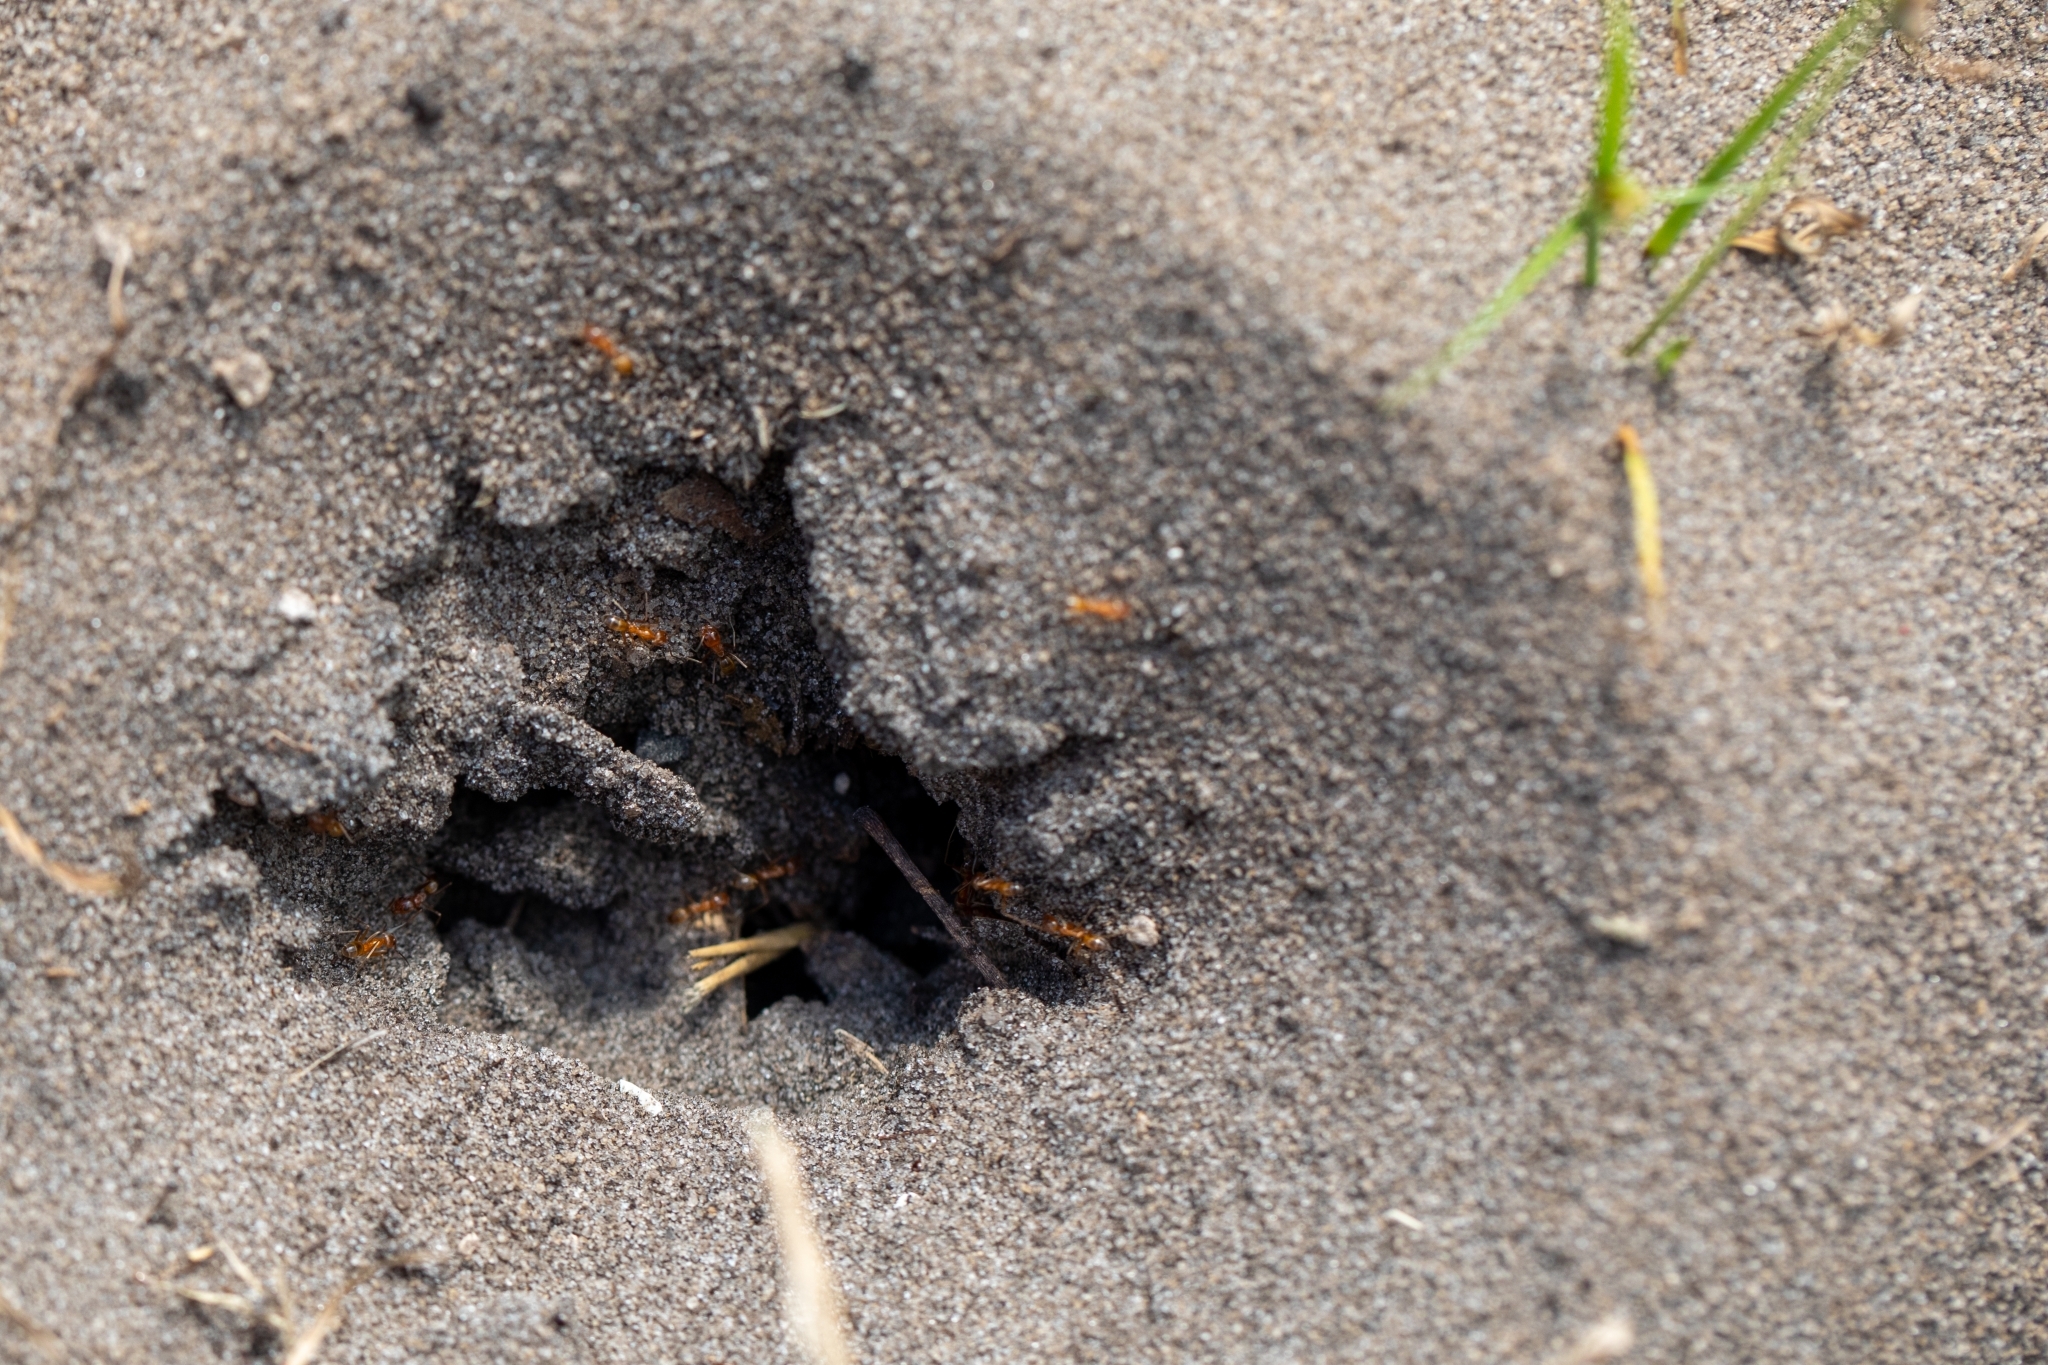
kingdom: Animalia
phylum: Arthropoda
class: Insecta
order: Hymenoptera
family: Formicidae
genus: Dorymyrmex
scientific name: Dorymyrmex bureni
